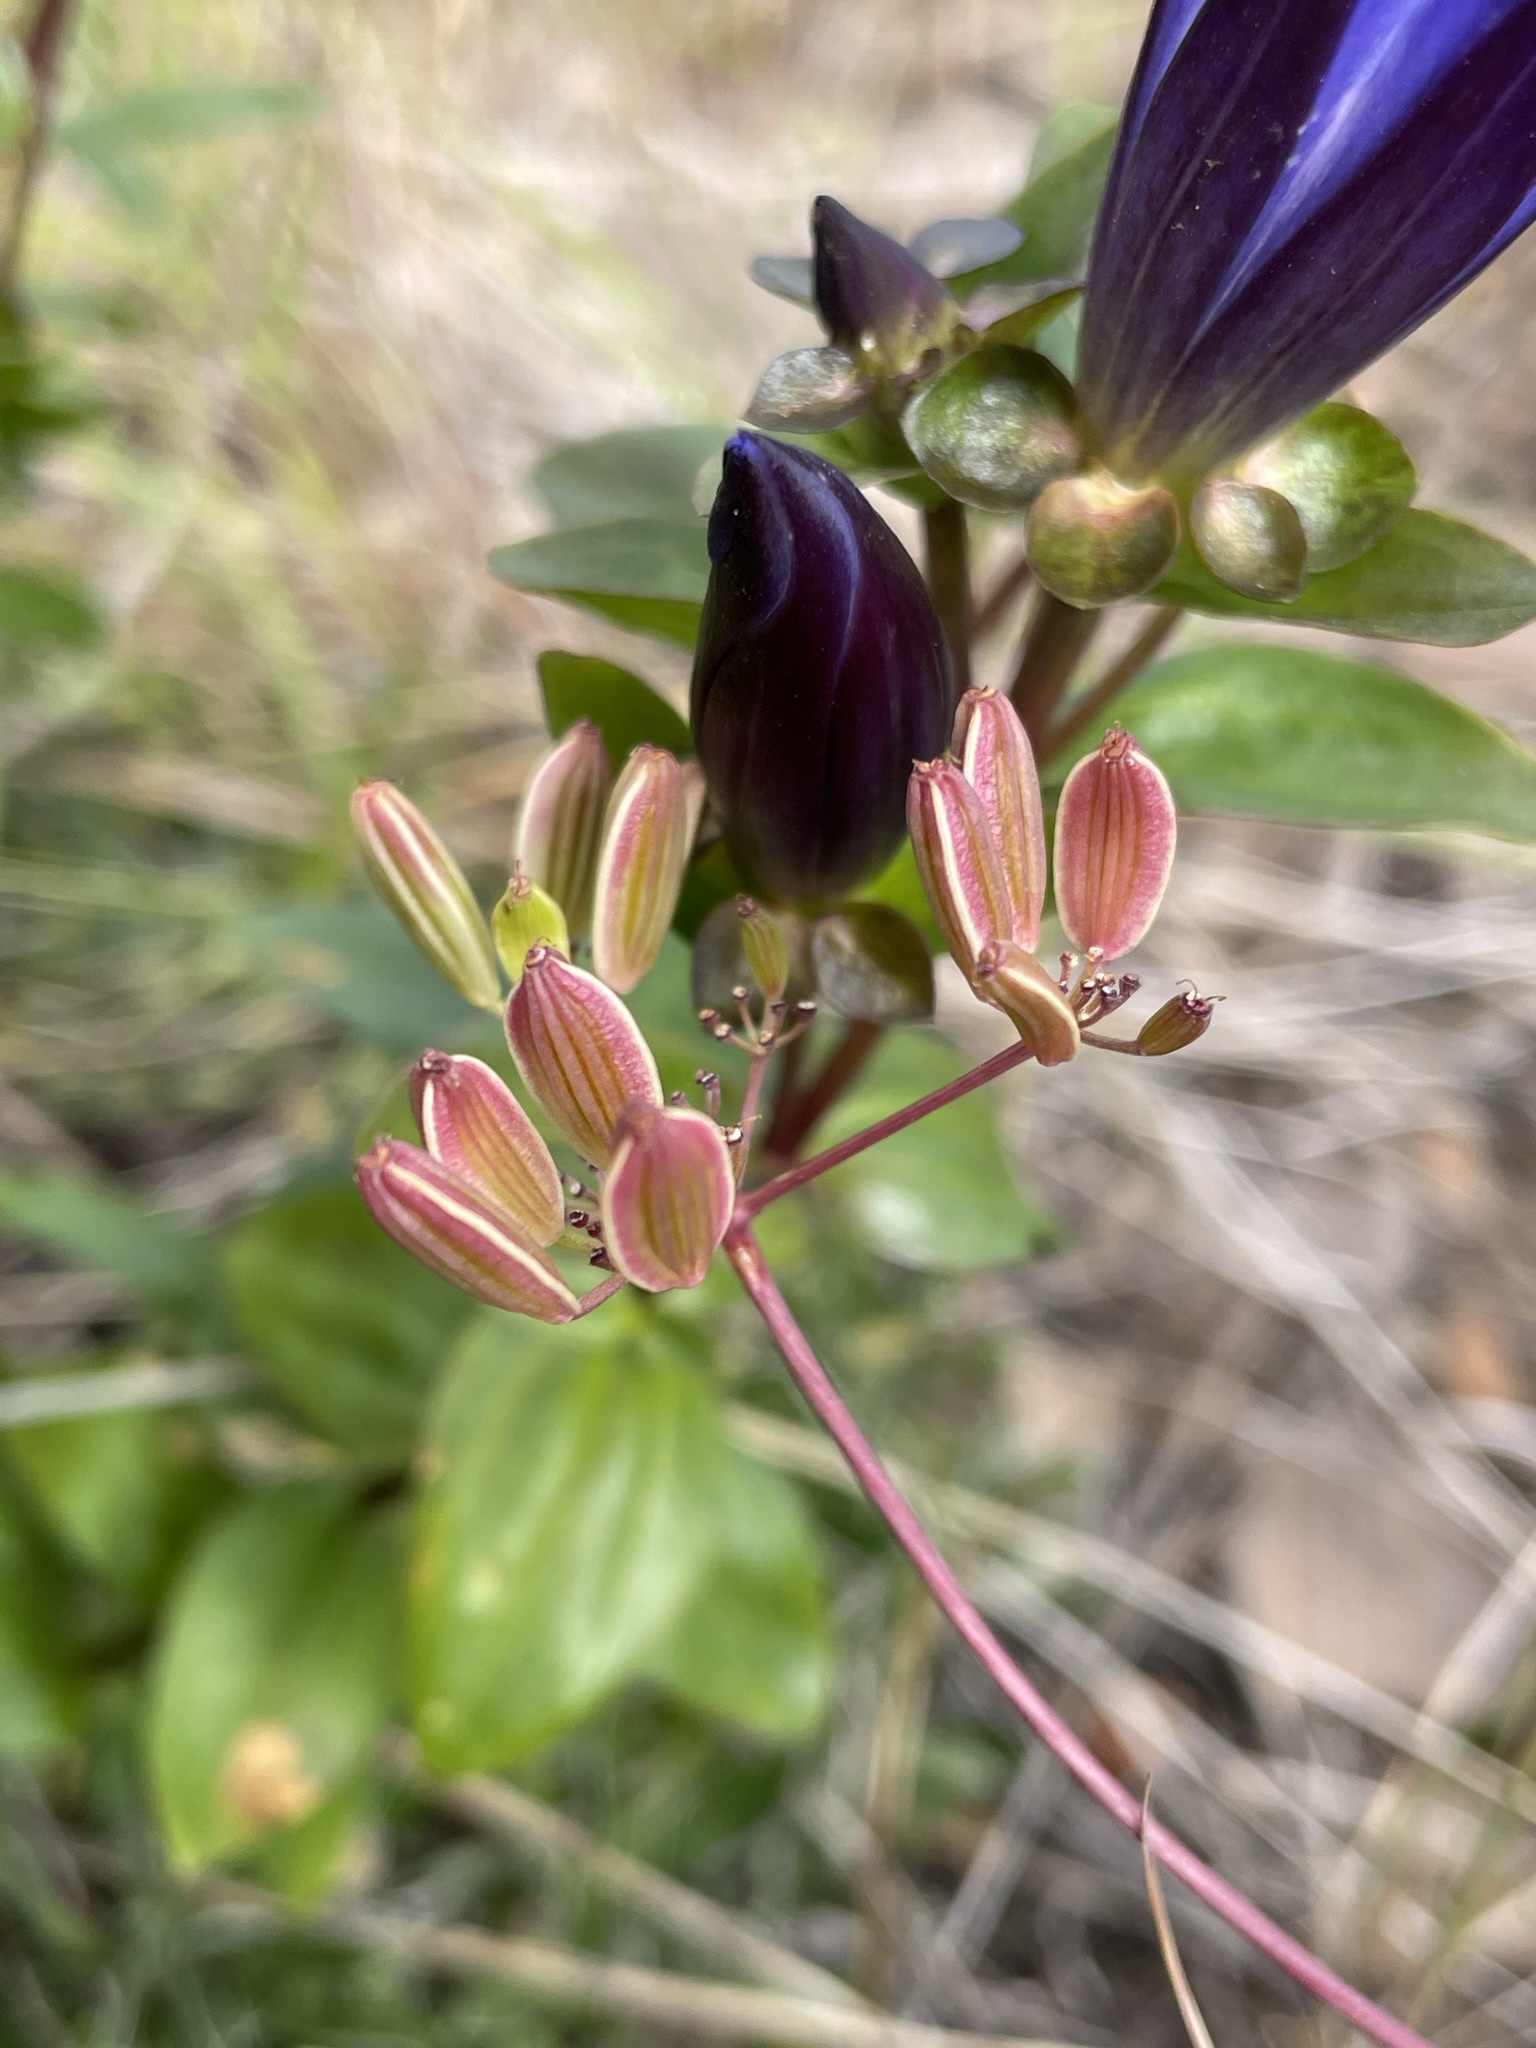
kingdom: Plantae
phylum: Tracheophyta
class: Magnoliopsida
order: Apiales
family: Apiaceae
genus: Lomatium
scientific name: Lomatium martindalei
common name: Cascade desert-parsley
